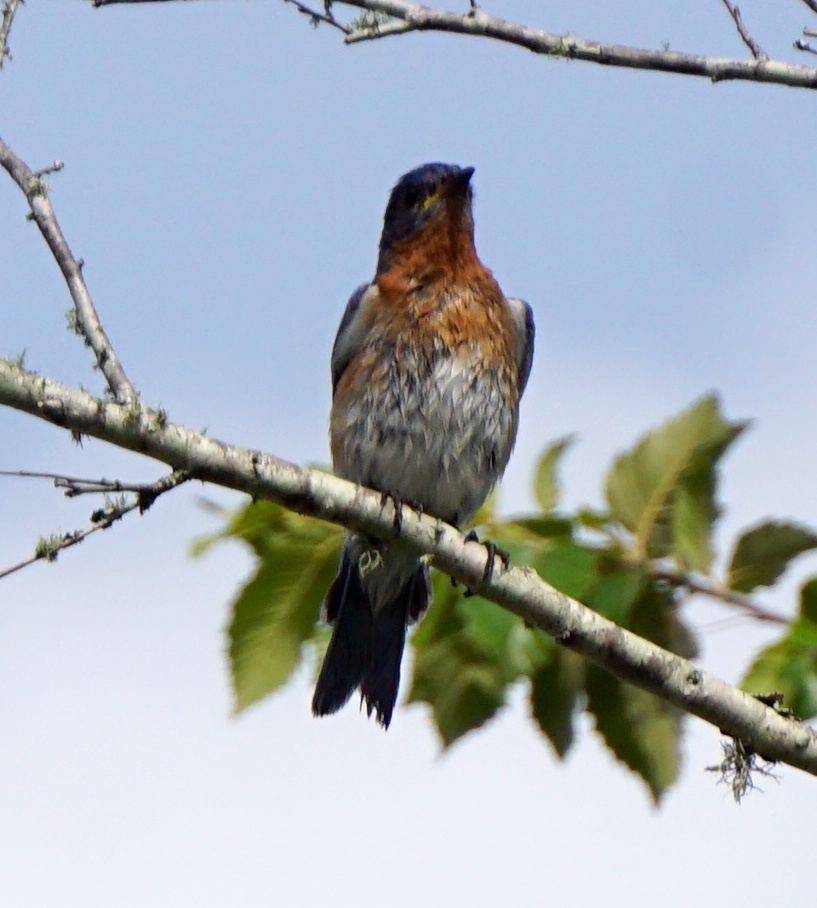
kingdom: Animalia
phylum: Chordata
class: Aves
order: Passeriformes
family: Turdidae
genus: Sialia
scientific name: Sialia sialis
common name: Eastern bluebird
